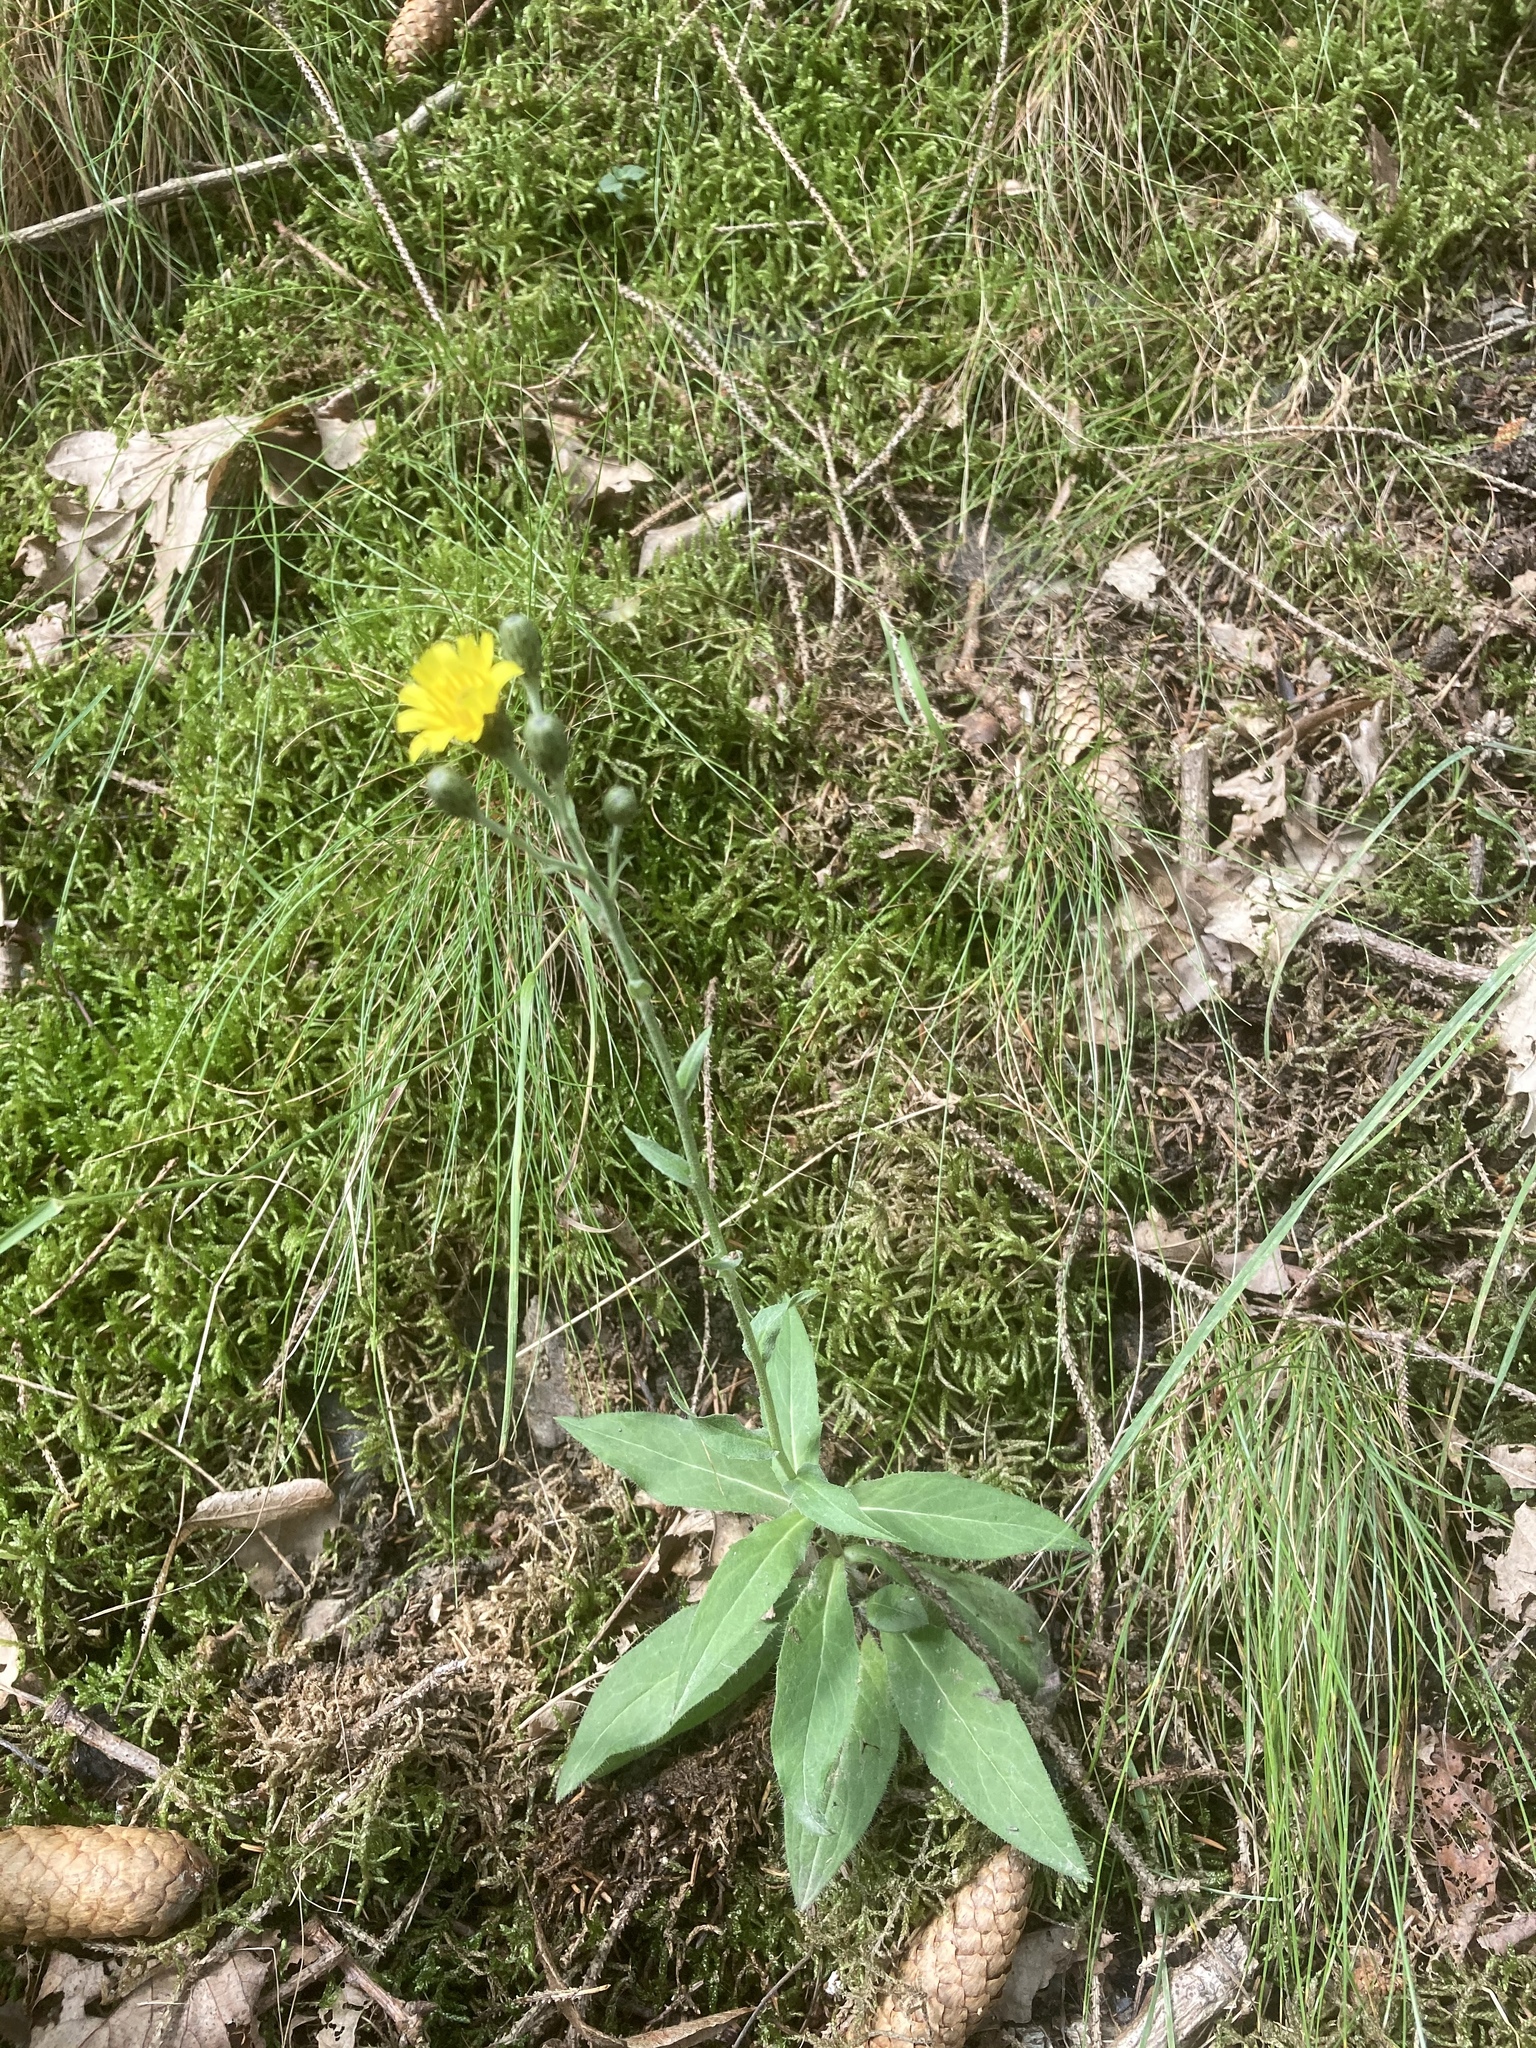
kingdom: Plantae
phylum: Tracheophyta
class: Magnoliopsida
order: Asterales
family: Asteraceae
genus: Hieracium
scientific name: Hieracium umbellatum
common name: Northern hawkweed
